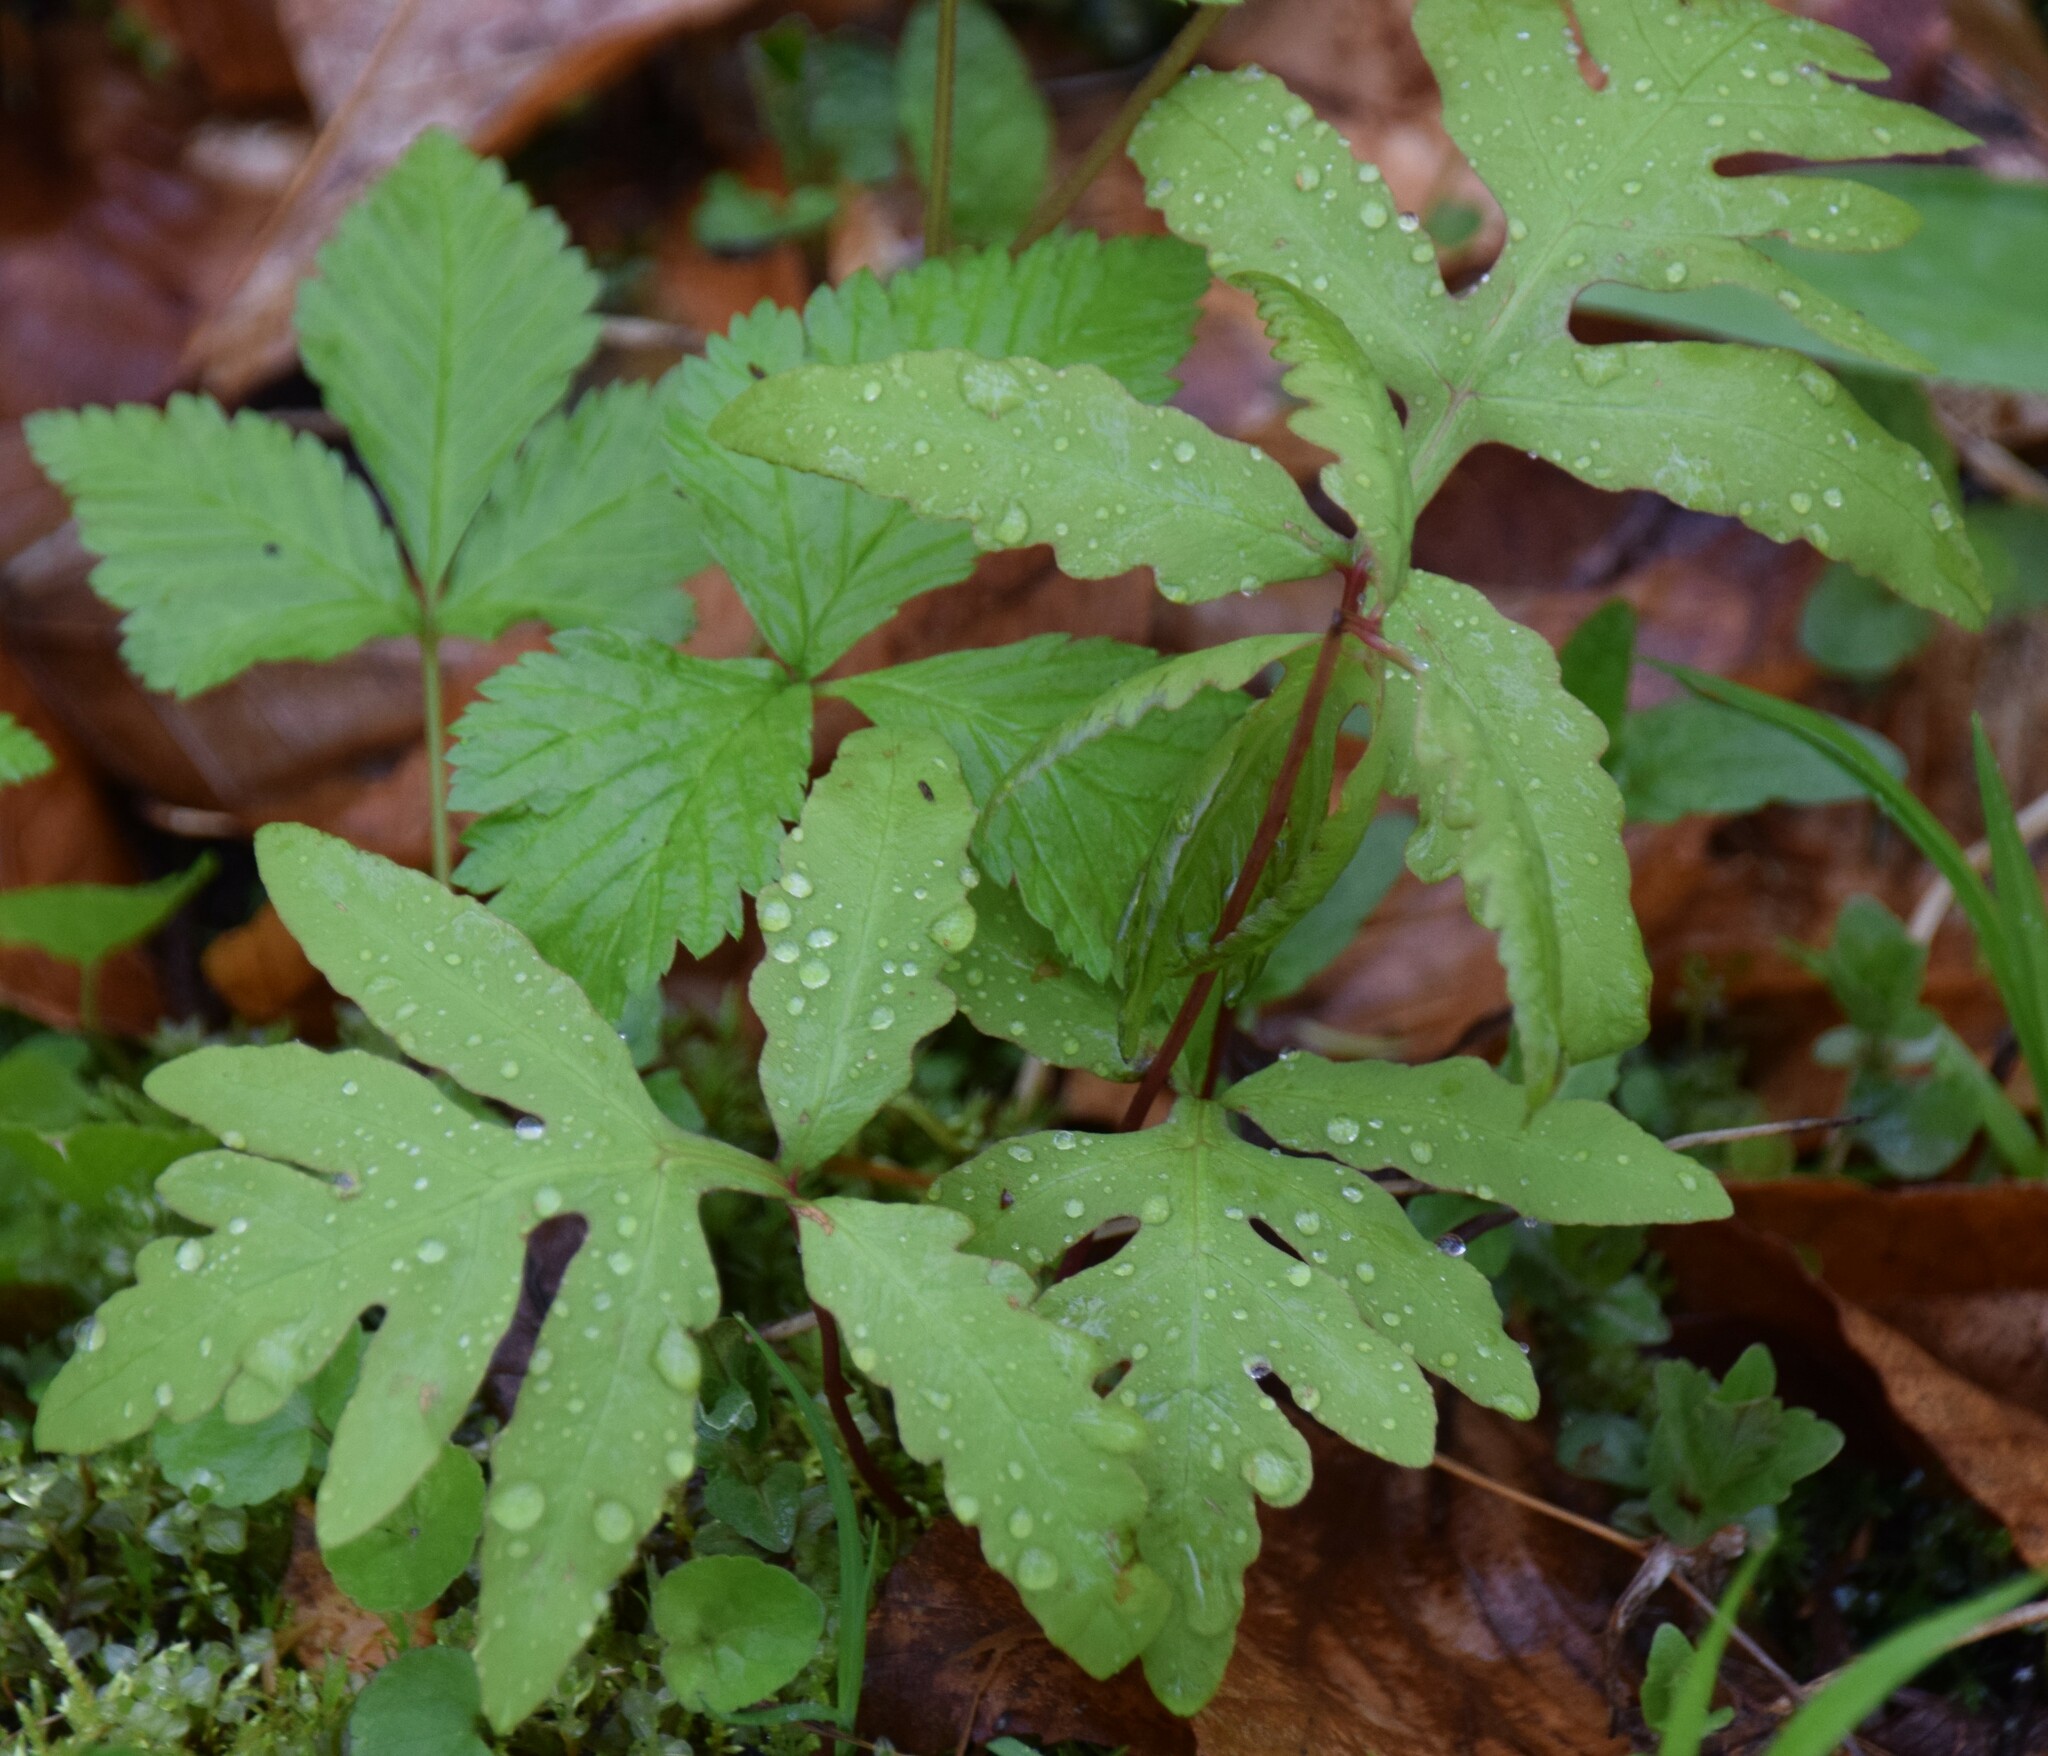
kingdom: Plantae
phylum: Tracheophyta
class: Polypodiopsida
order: Polypodiales
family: Onocleaceae
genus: Onoclea
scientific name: Onoclea sensibilis
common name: Sensitive fern
